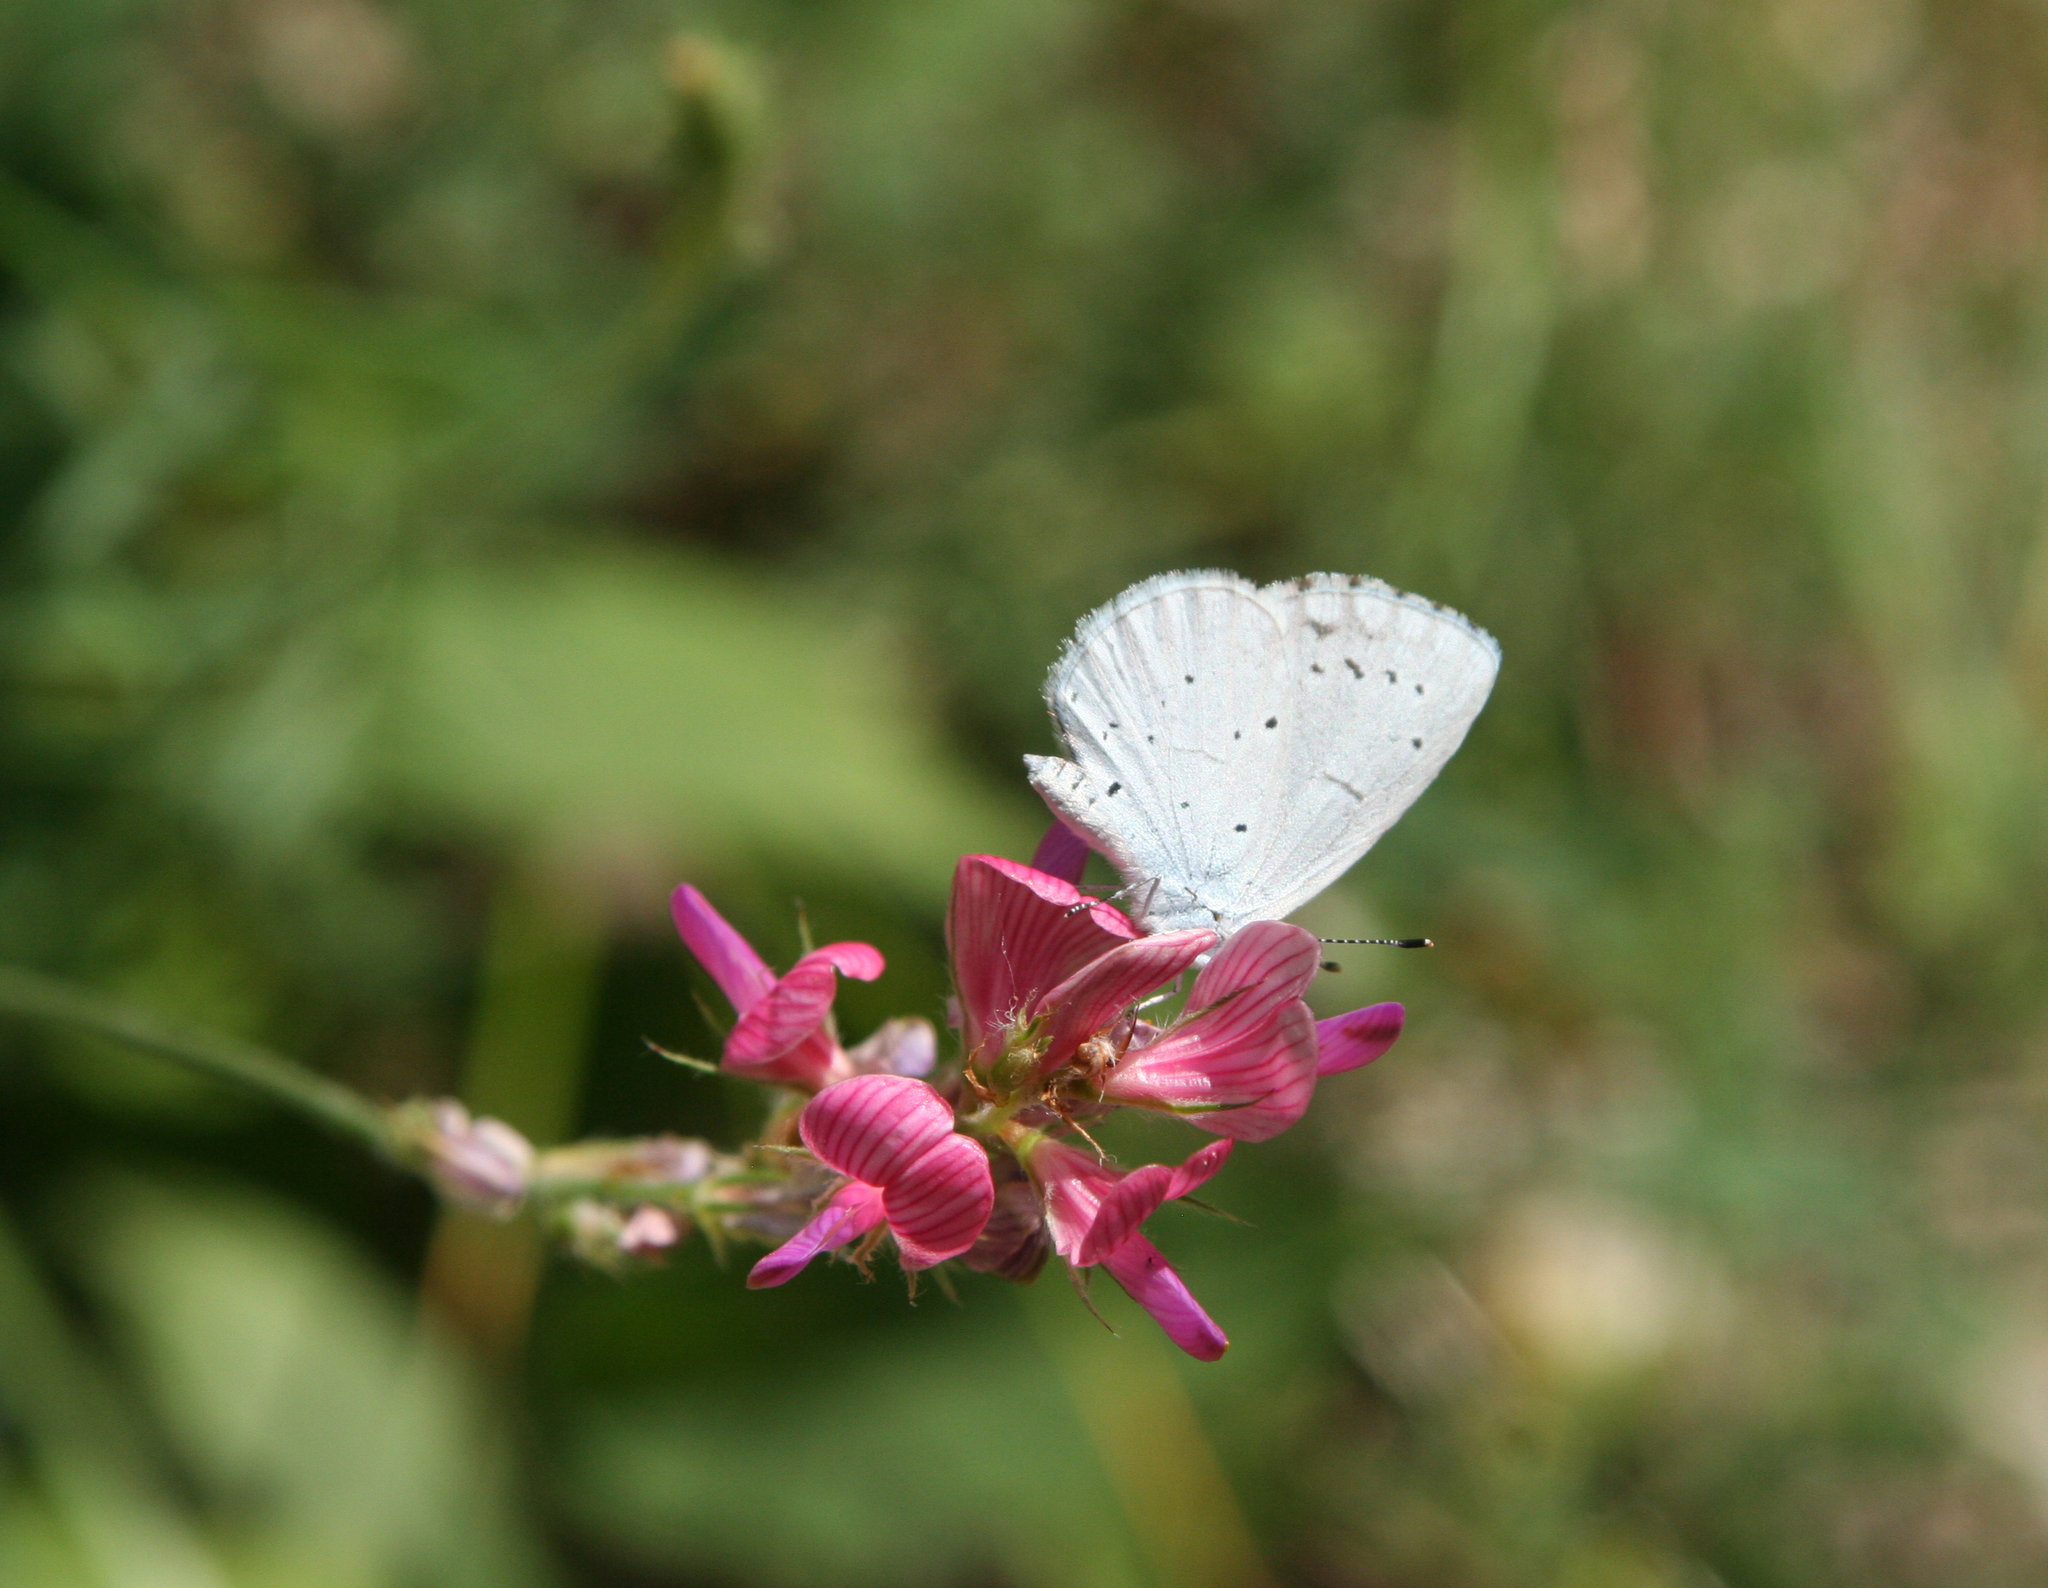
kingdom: Animalia
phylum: Arthropoda
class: Insecta
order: Lepidoptera
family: Lycaenidae
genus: Celastrina
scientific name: Celastrina argiolus
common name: Holly blue
